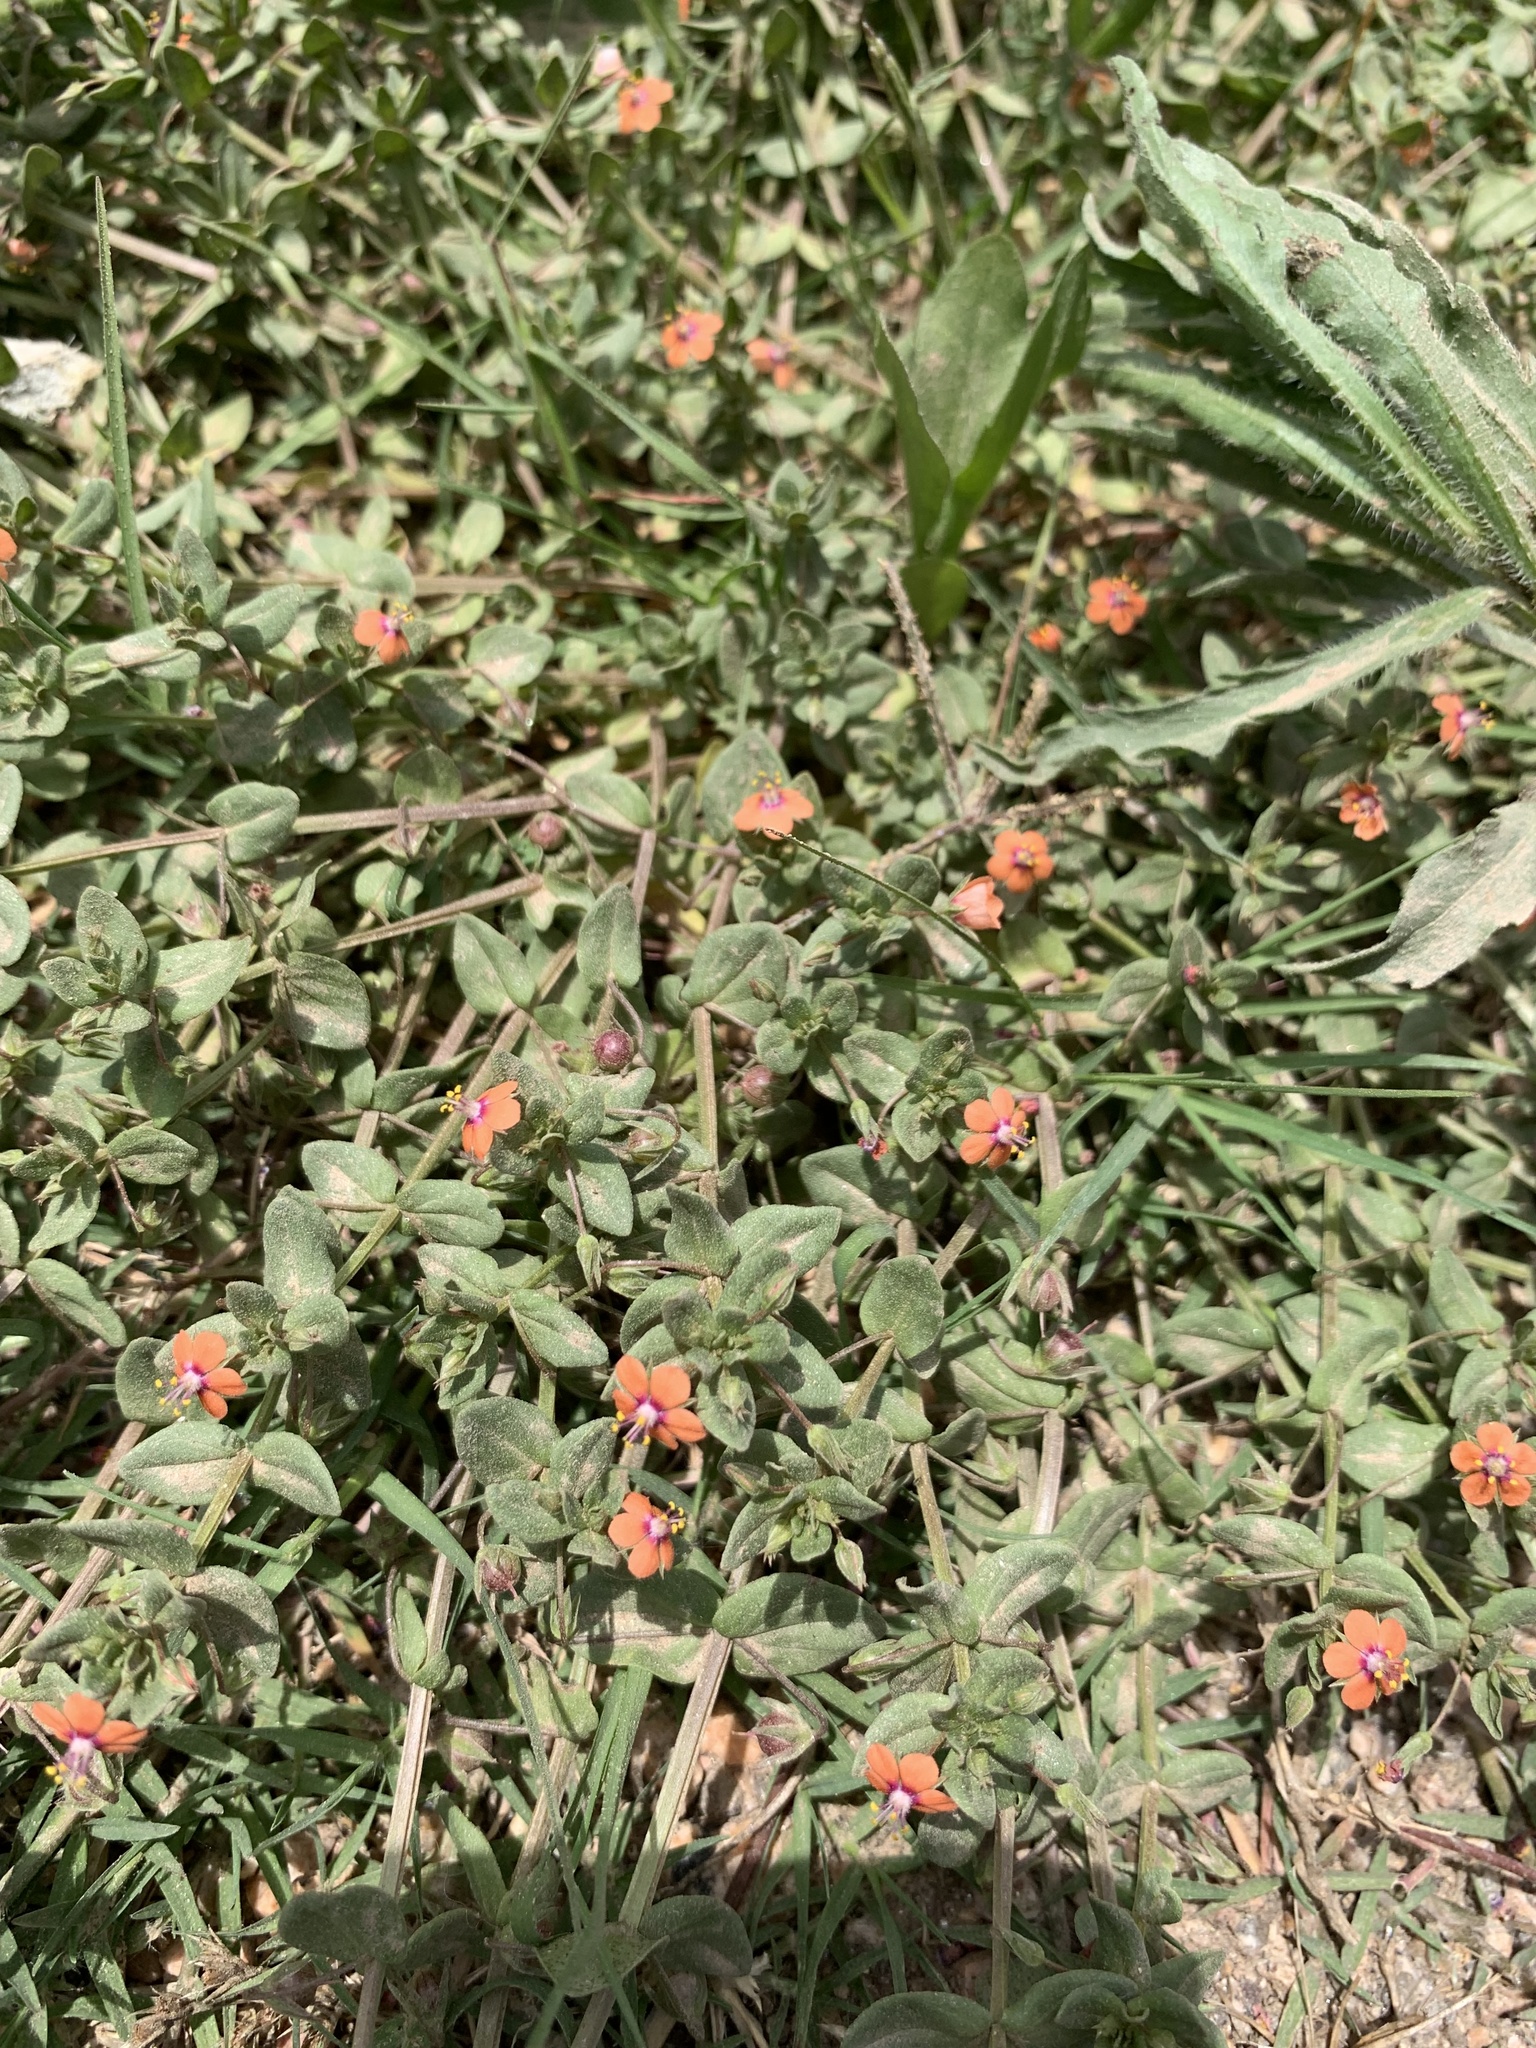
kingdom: Plantae
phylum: Tracheophyta
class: Magnoliopsida
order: Ericales
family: Primulaceae
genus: Lysimachia
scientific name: Lysimachia arvensis
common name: Scarlet pimpernel
